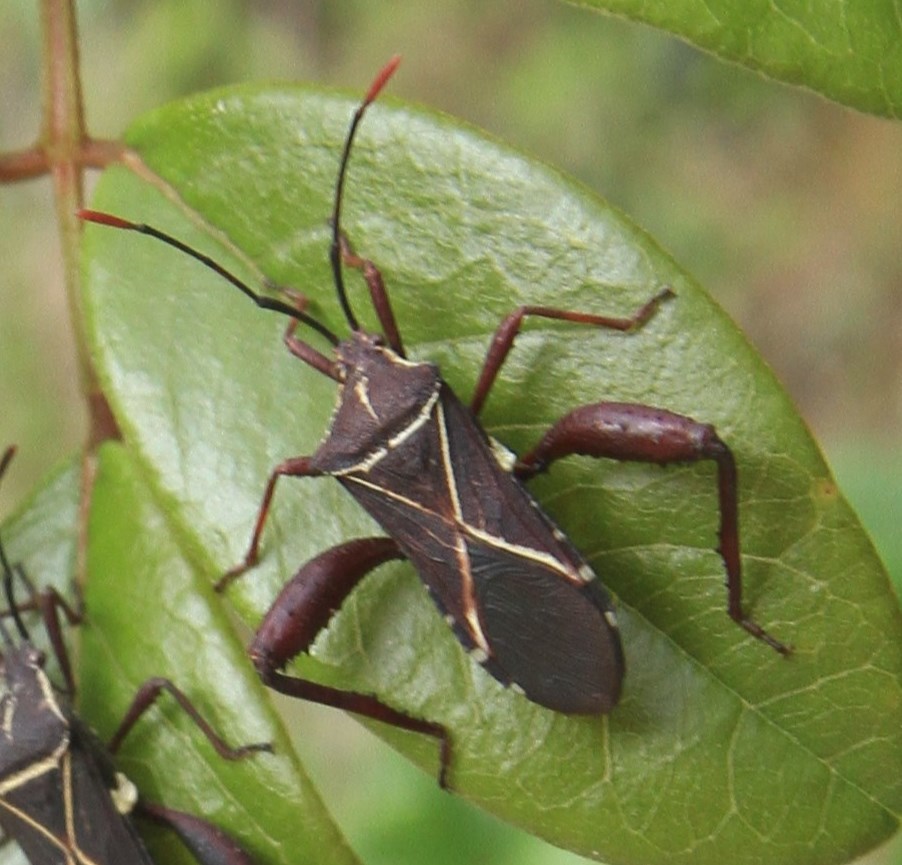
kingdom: Animalia
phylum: Arthropoda
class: Insecta
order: Hemiptera
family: Coreidae
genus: Acanthocerus
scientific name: Acanthocerus crucifer
